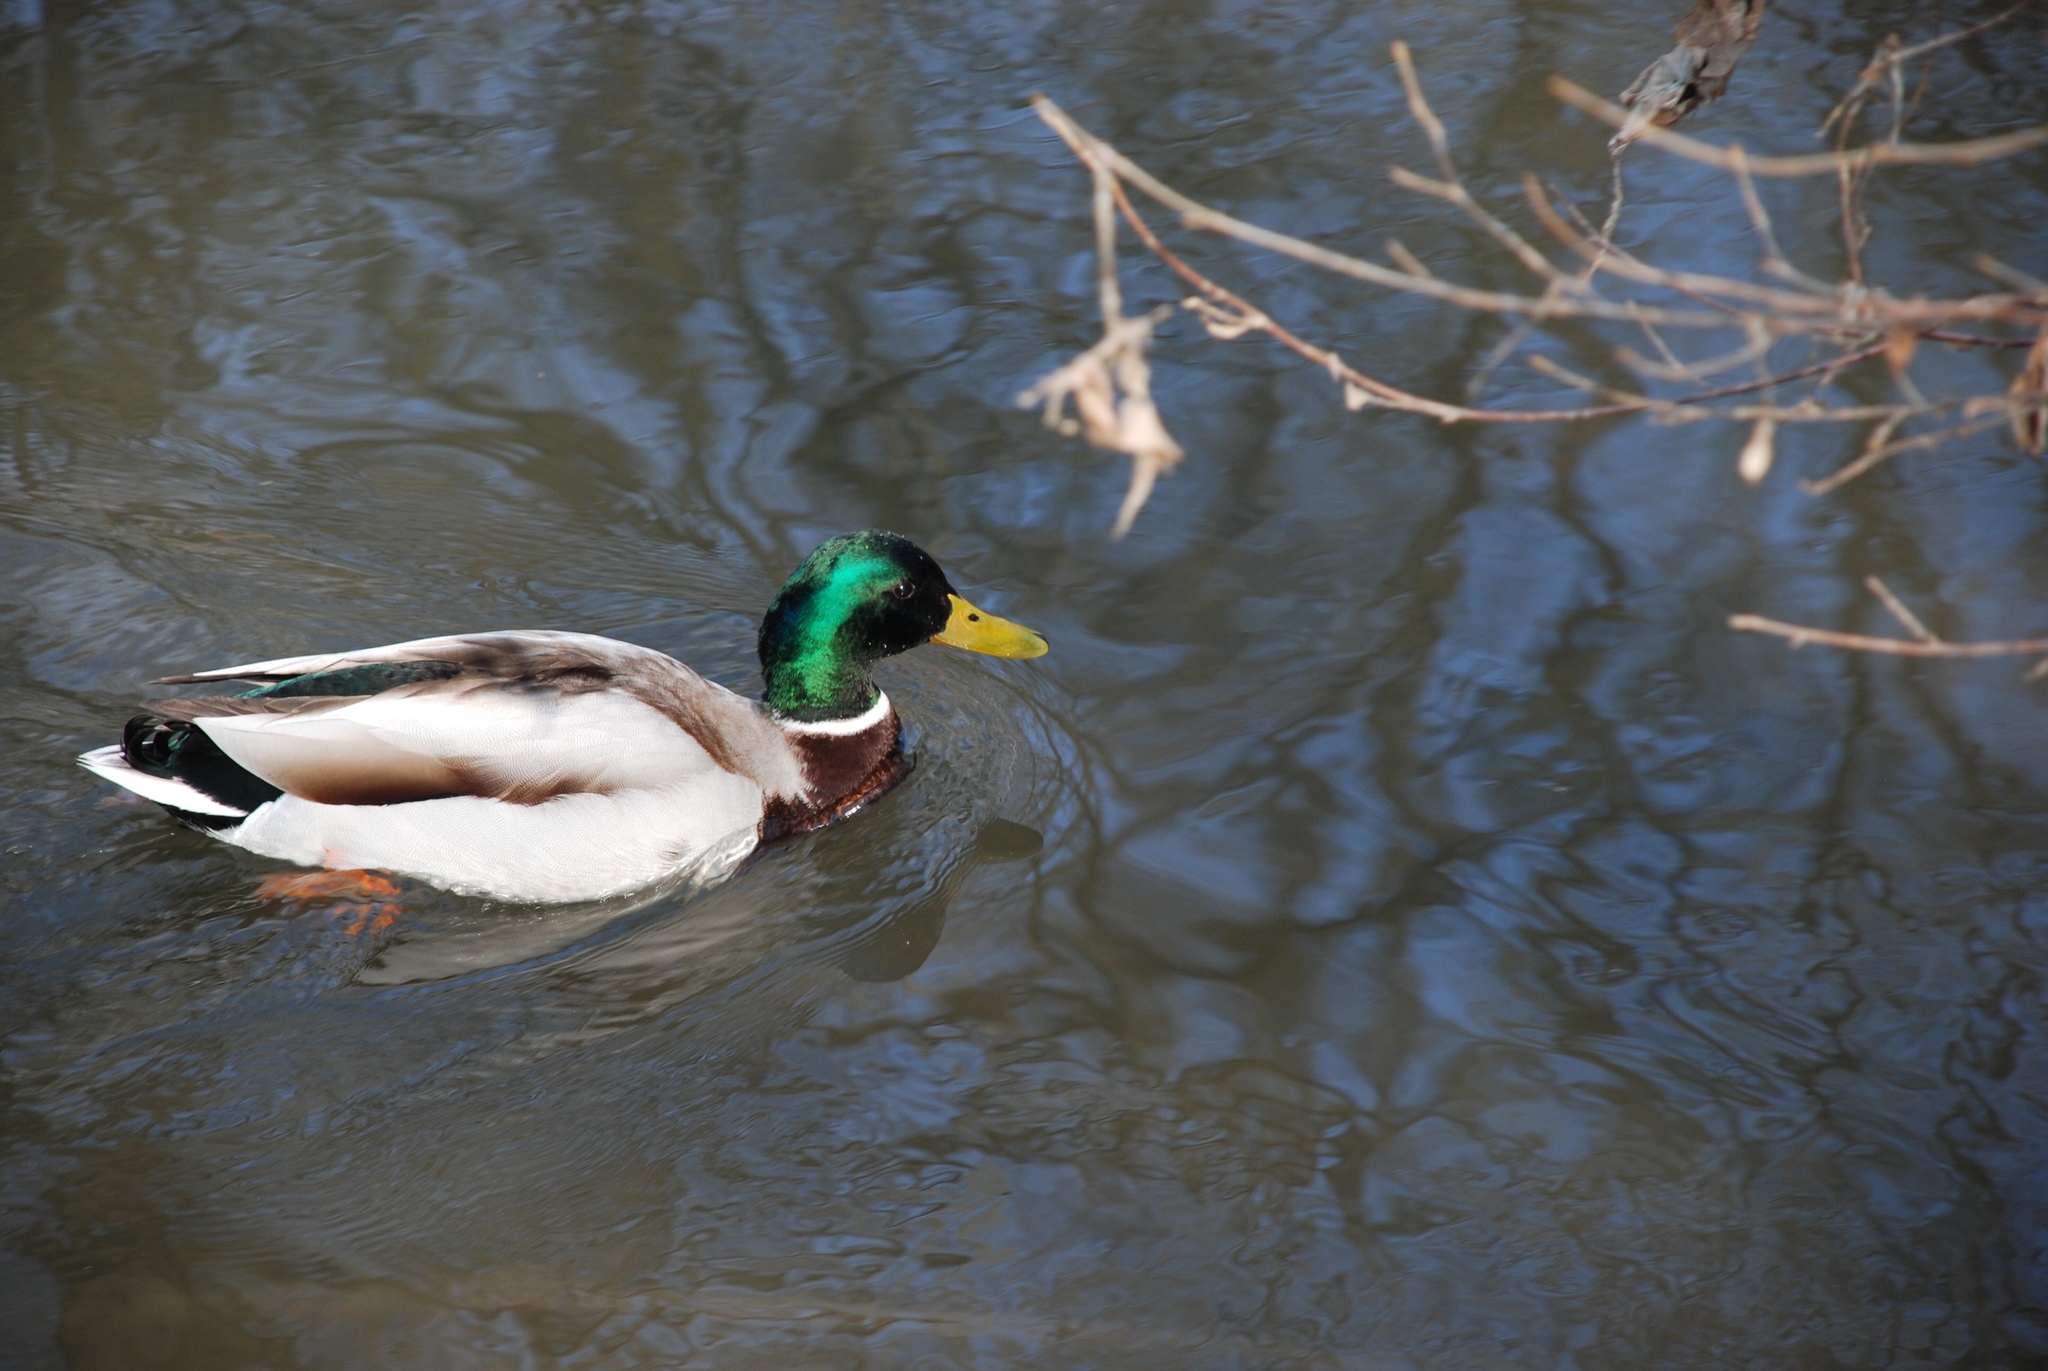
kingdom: Animalia
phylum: Chordata
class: Aves
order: Anseriformes
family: Anatidae
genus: Anas
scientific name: Anas platyrhynchos
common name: Mallard
